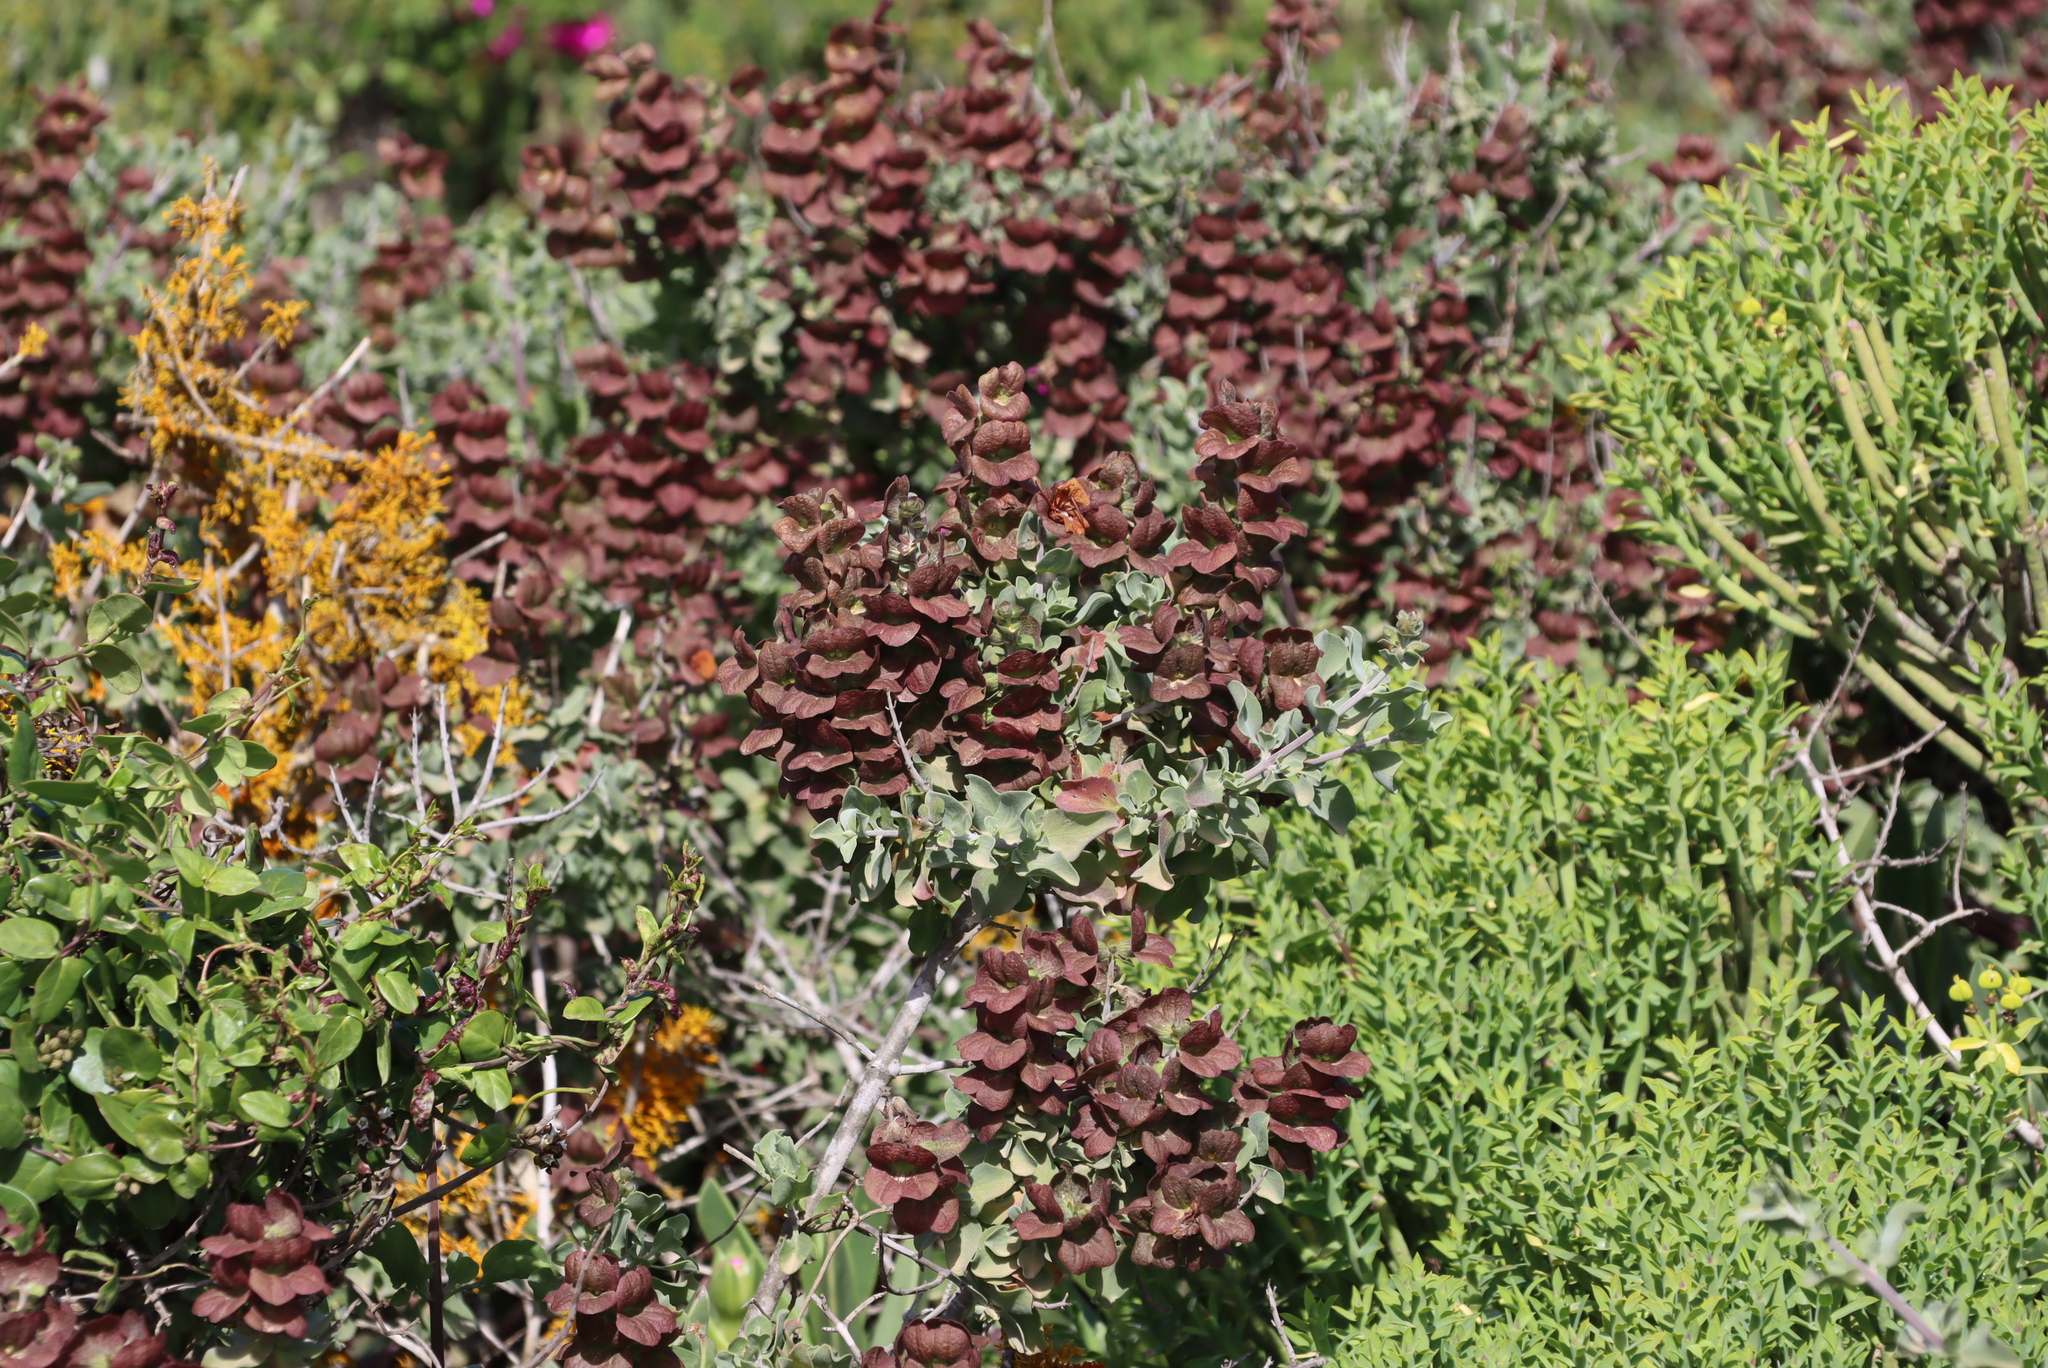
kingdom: Plantae
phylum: Tracheophyta
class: Magnoliopsida
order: Lamiales
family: Lamiaceae
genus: Salvia
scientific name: Salvia aurea
